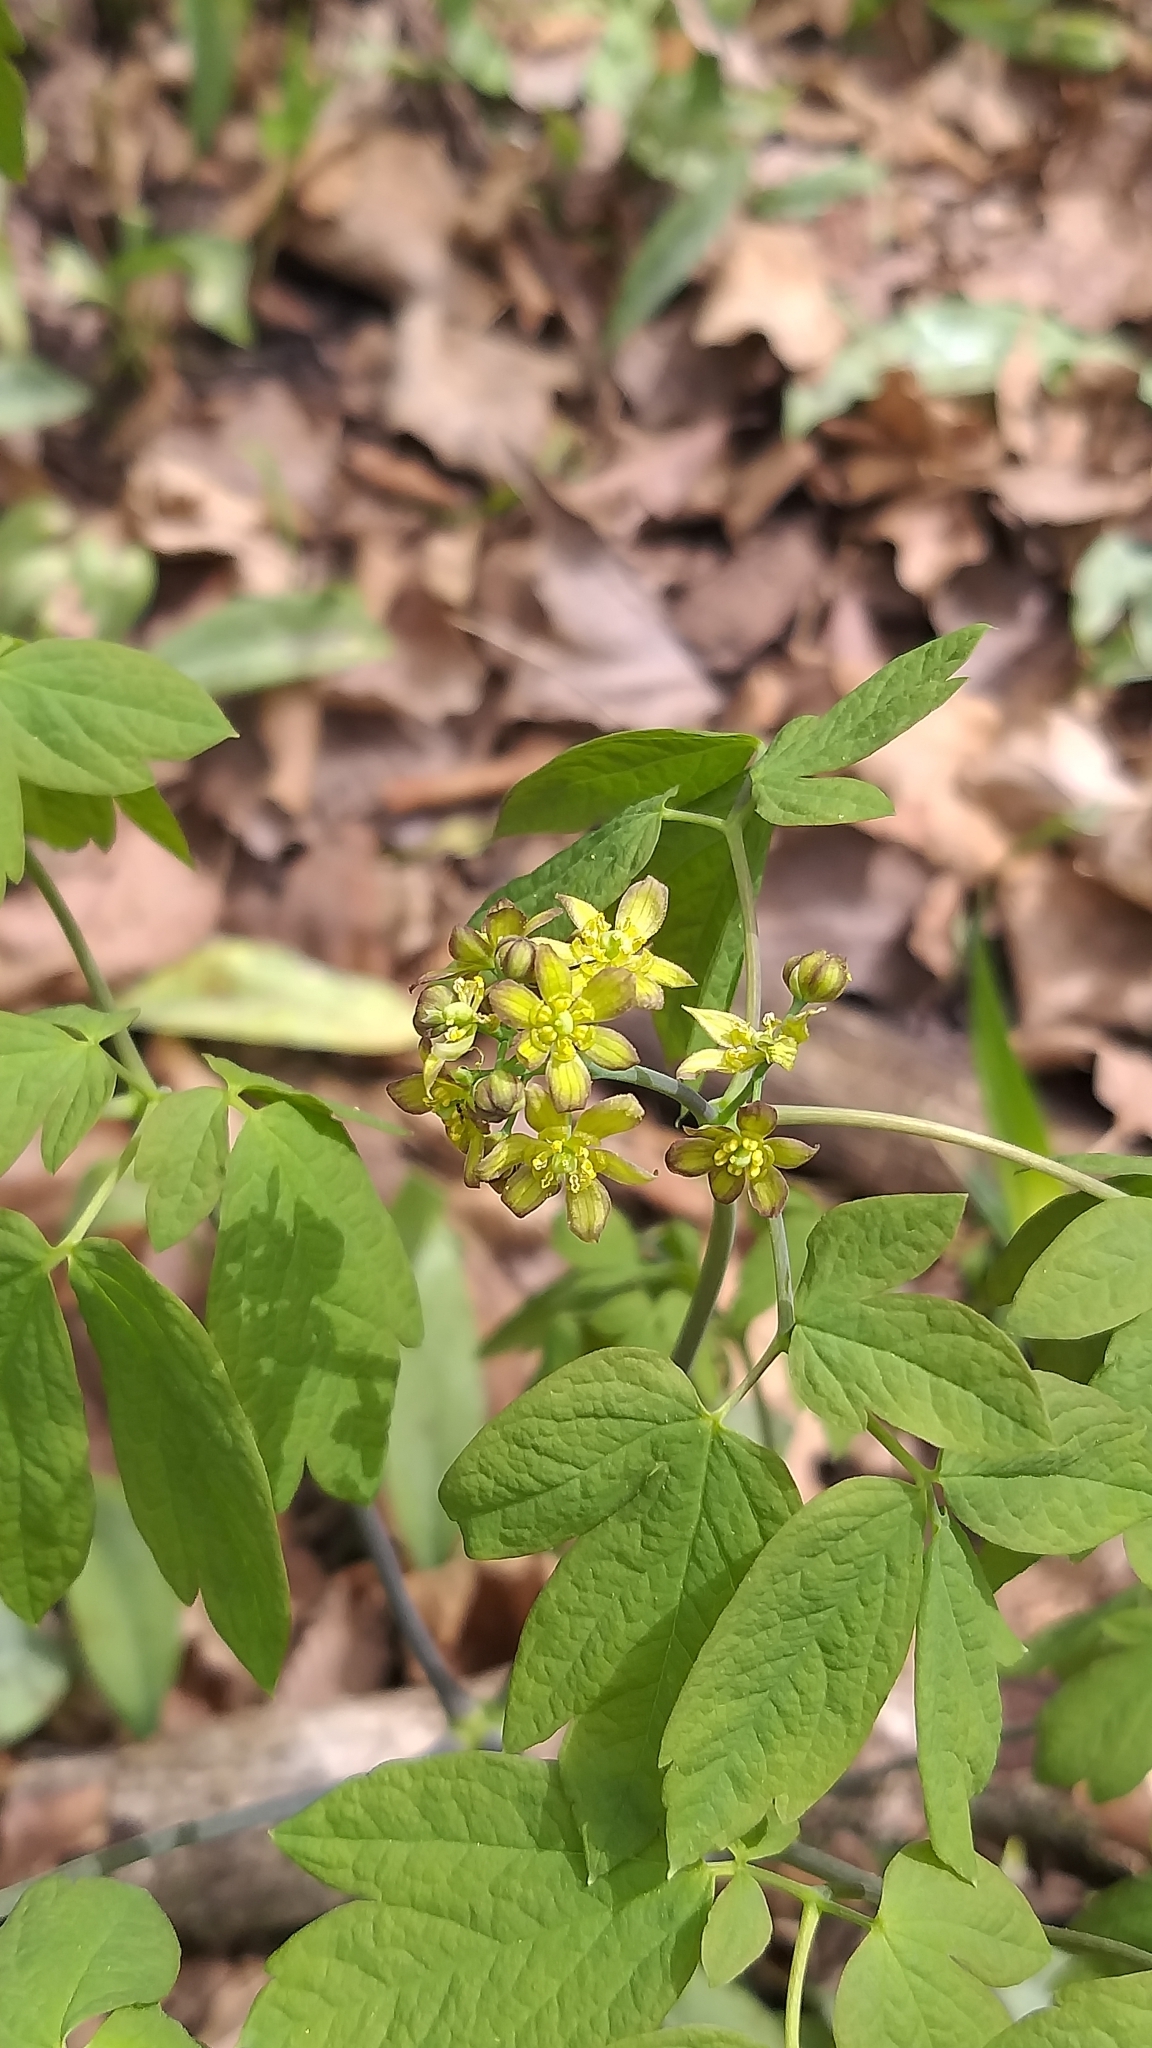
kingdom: Plantae
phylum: Tracheophyta
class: Magnoliopsida
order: Ranunculales
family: Berberidaceae
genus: Caulophyllum
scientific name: Caulophyllum thalictroides
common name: Blue cohosh
